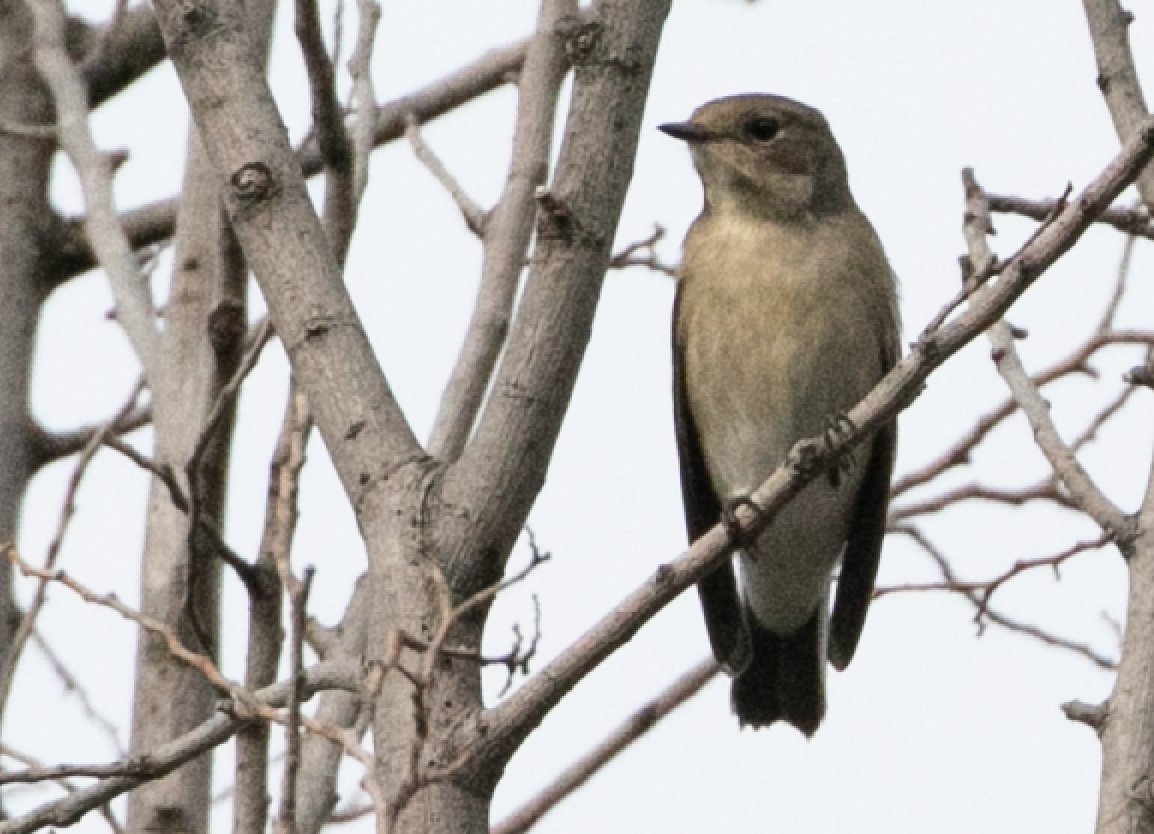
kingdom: Animalia
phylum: Chordata
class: Aves
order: Passeriformes
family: Muscicapidae
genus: Ficedula
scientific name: Ficedula hypoleuca
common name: European pied flycatcher
